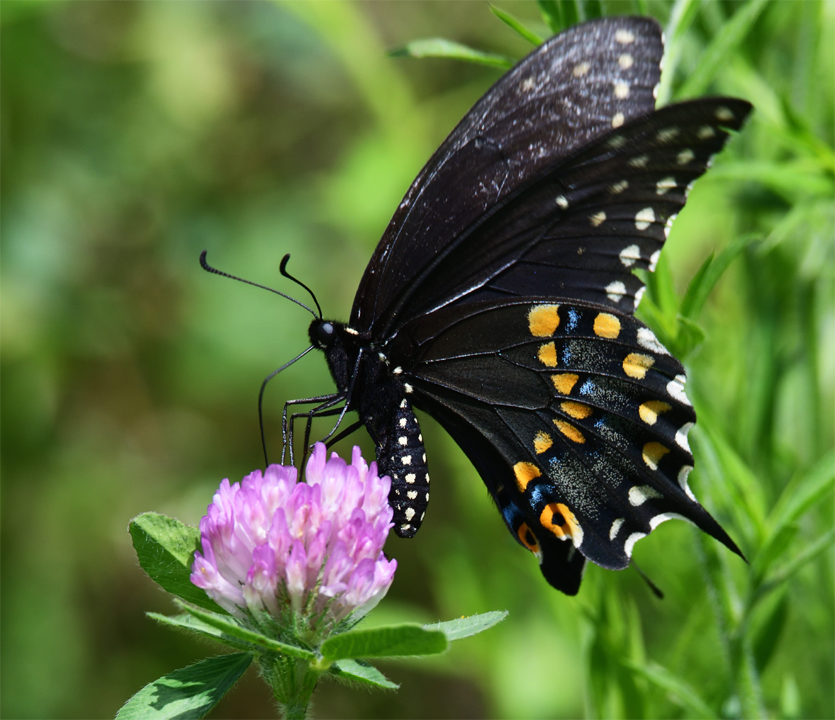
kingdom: Animalia
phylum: Arthropoda
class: Insecta
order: Lepidoptera
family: Papilionidae
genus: Papilio
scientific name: Papilio polyxenes
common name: Black swallowtail
